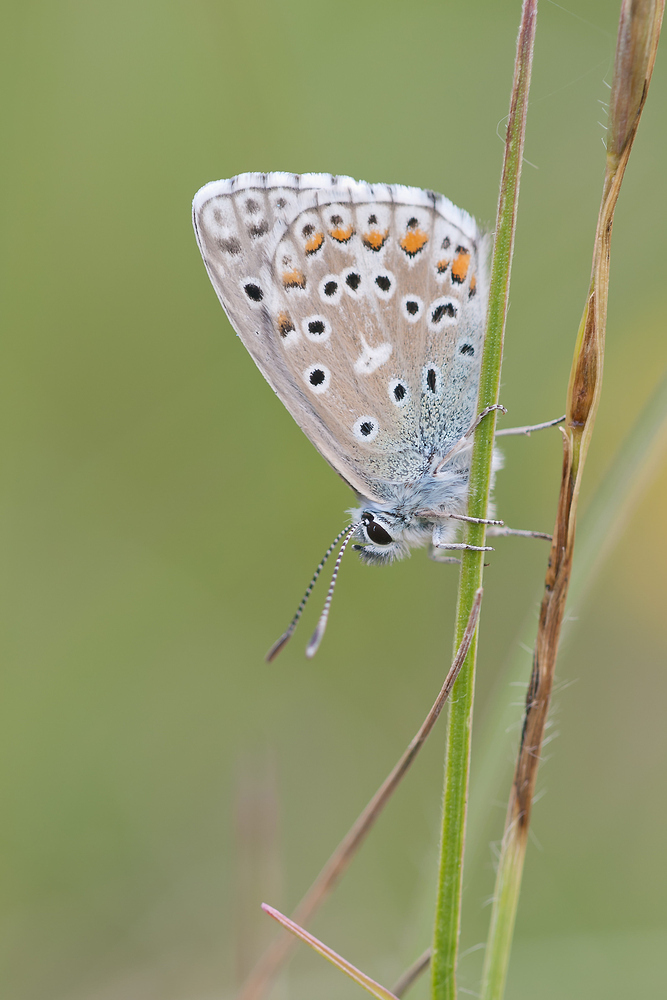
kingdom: Animalia
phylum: Arthropoda
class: Insecta
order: Lepidoptera
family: Lycaenidae
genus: Lysandra
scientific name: Lysandra bellargus
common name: Adonis blue
